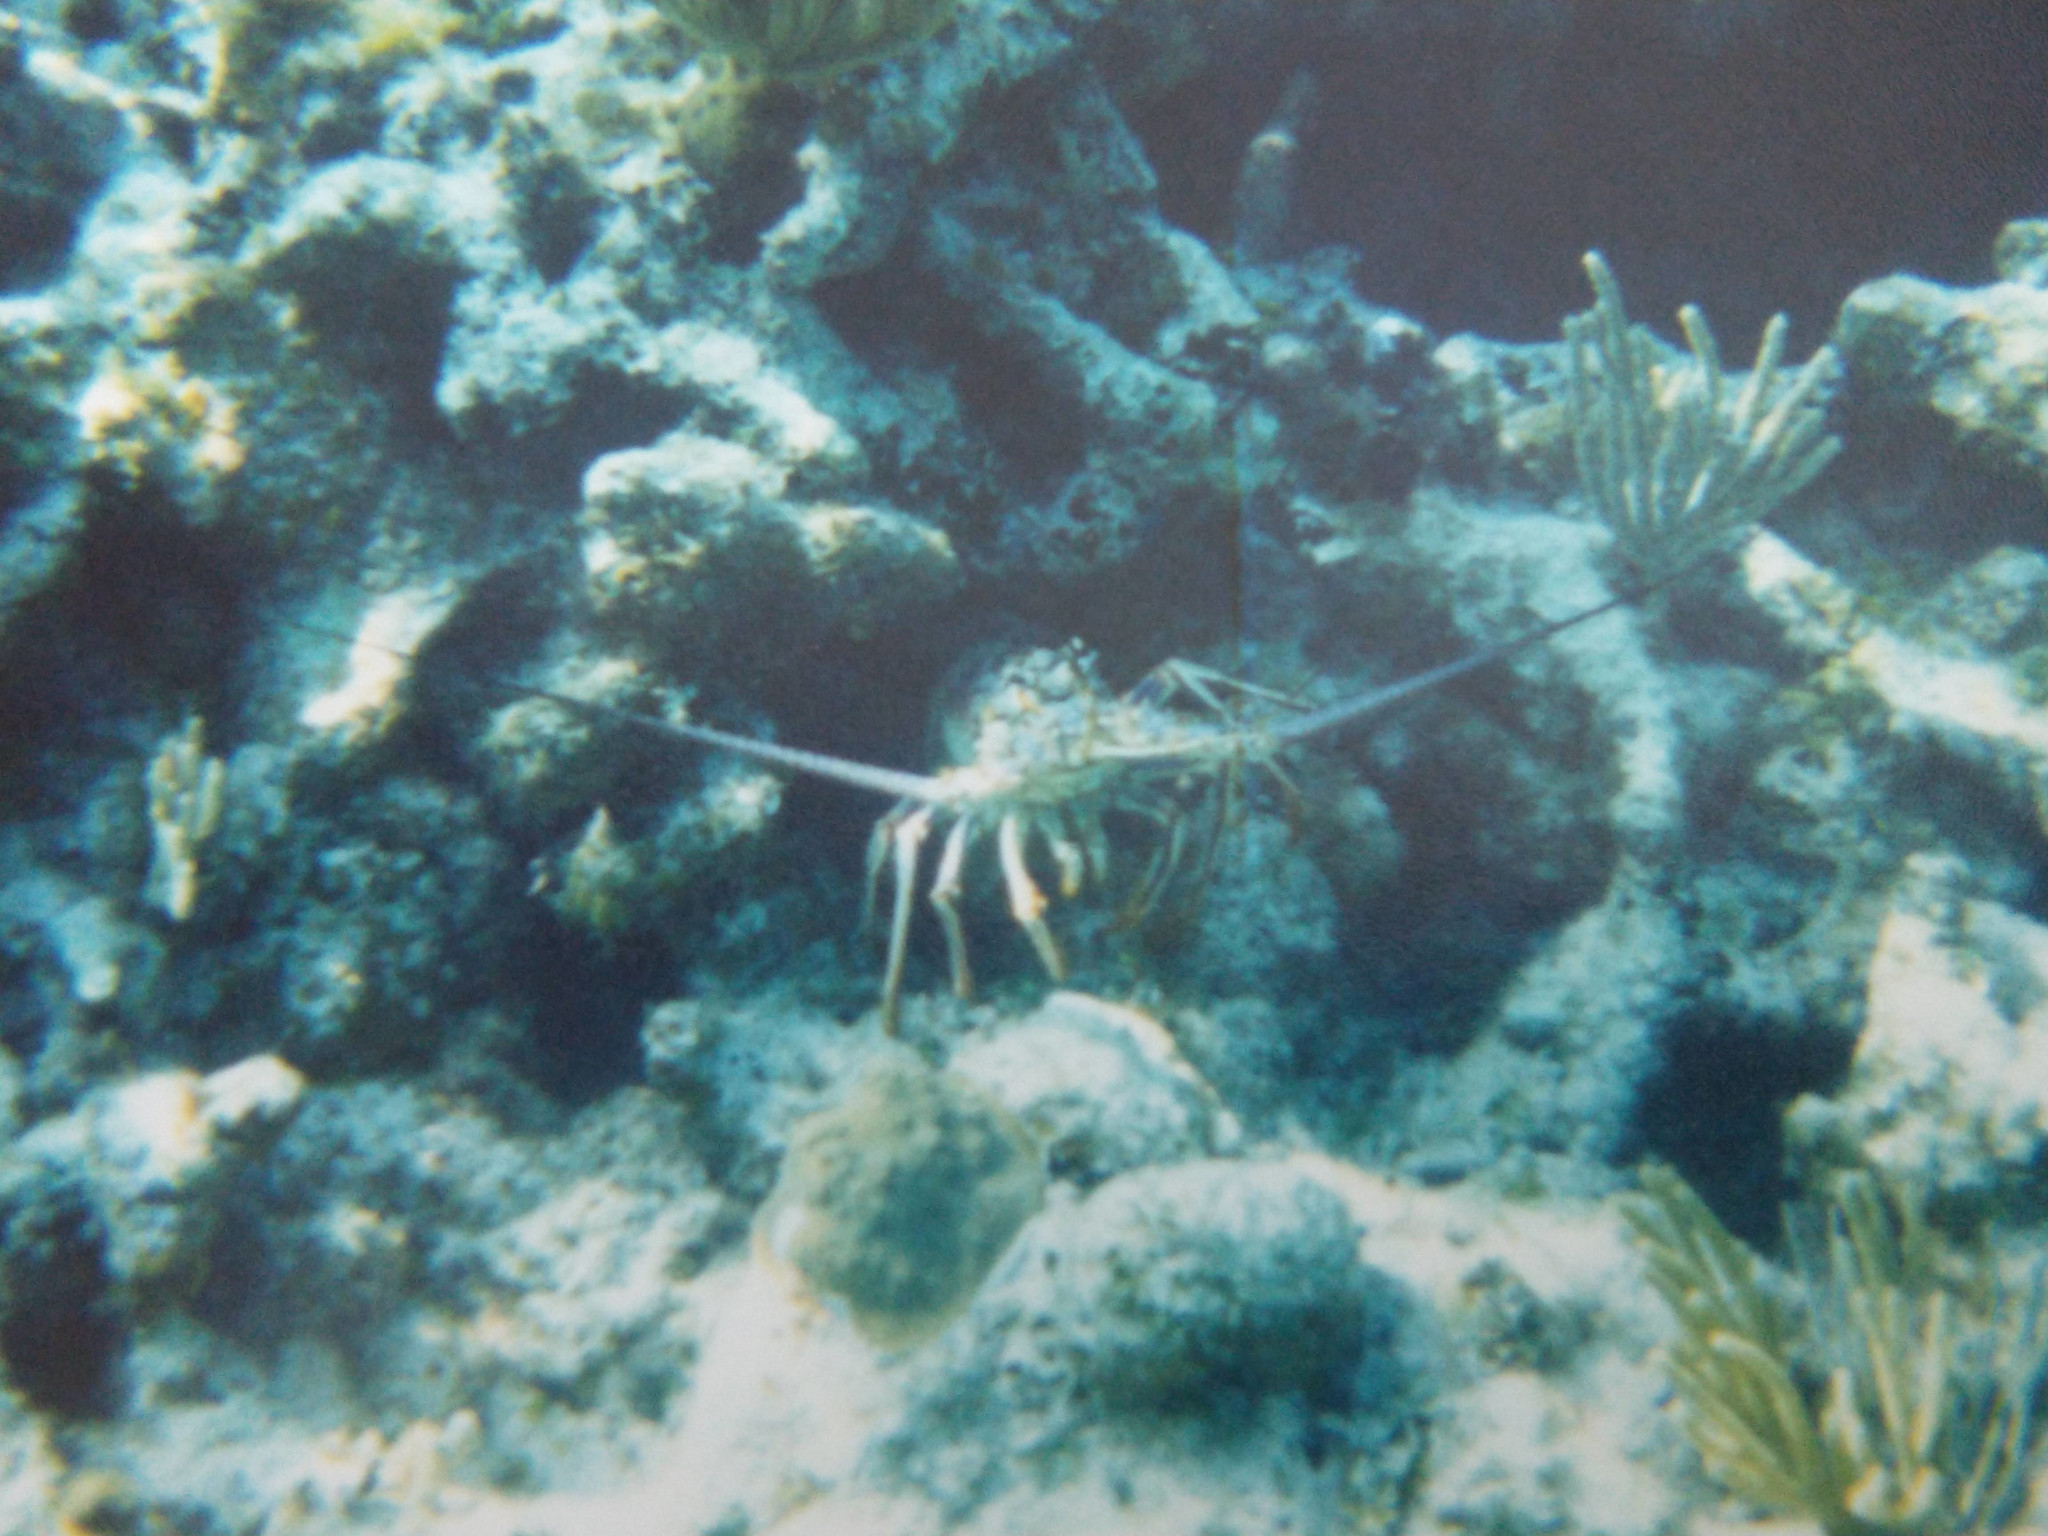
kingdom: Animalia
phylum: Arthropoda
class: Malacostraca
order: Decapoda
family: Palinuridae
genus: Panulirus
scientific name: Panulirus argus
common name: Caribbean spiny lobster
